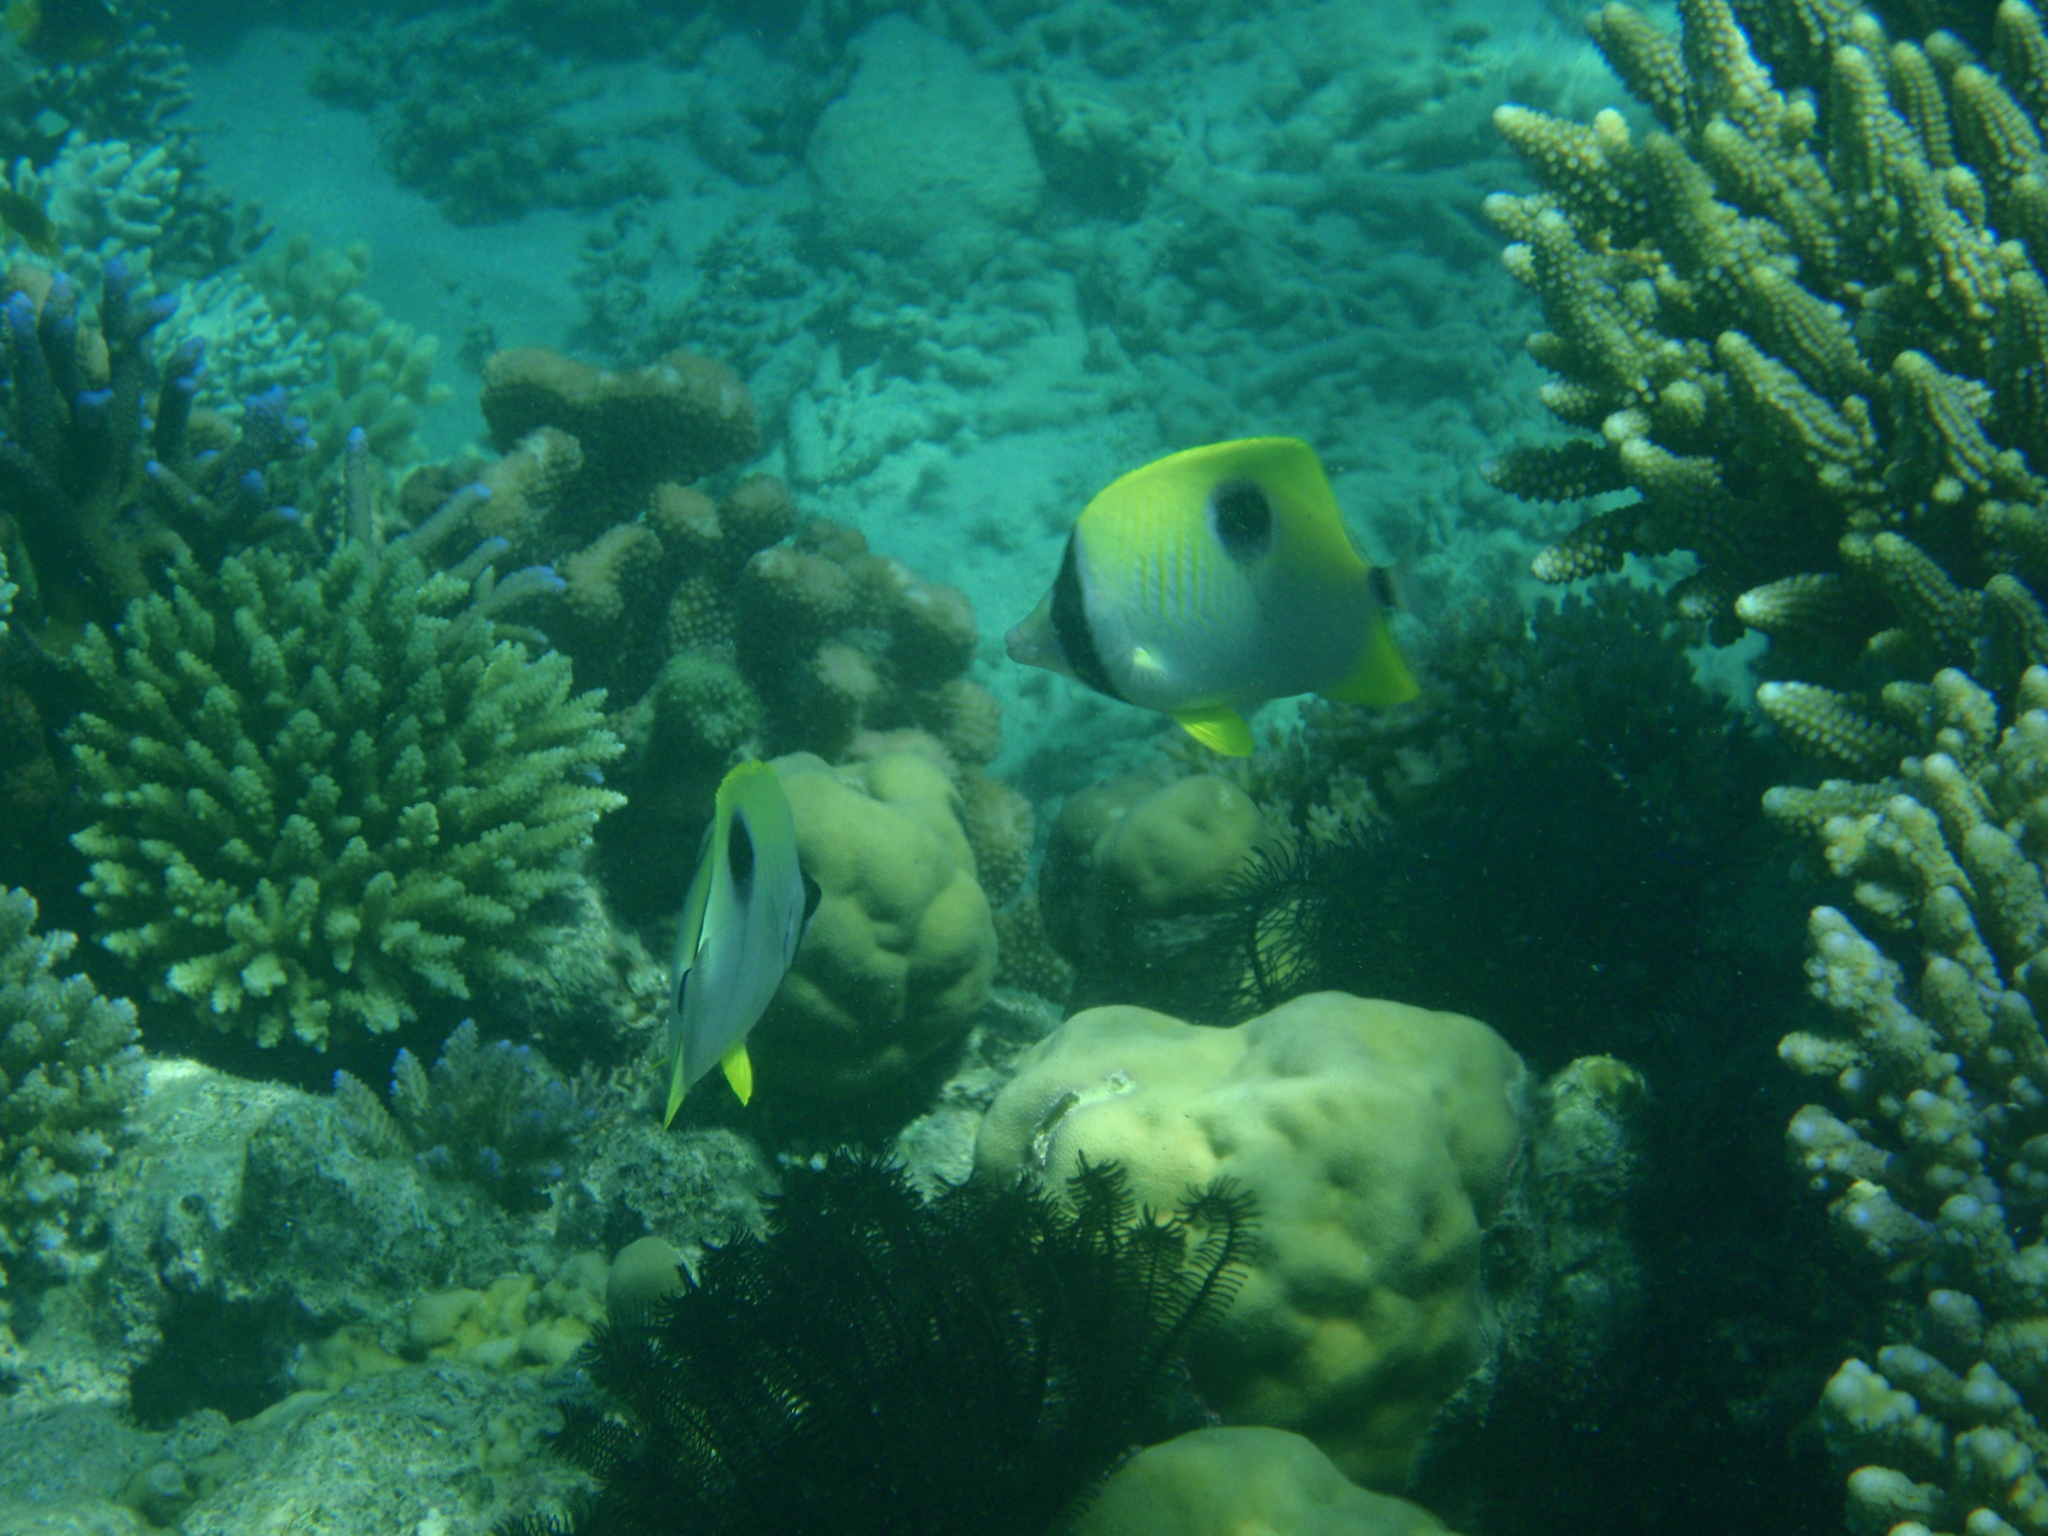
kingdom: Animalia
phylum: Chordata
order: Perciformes
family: Chaetodontidae
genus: Chaetodon
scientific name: Chaetodon unimaculatus
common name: Teardrop butterflyfish
